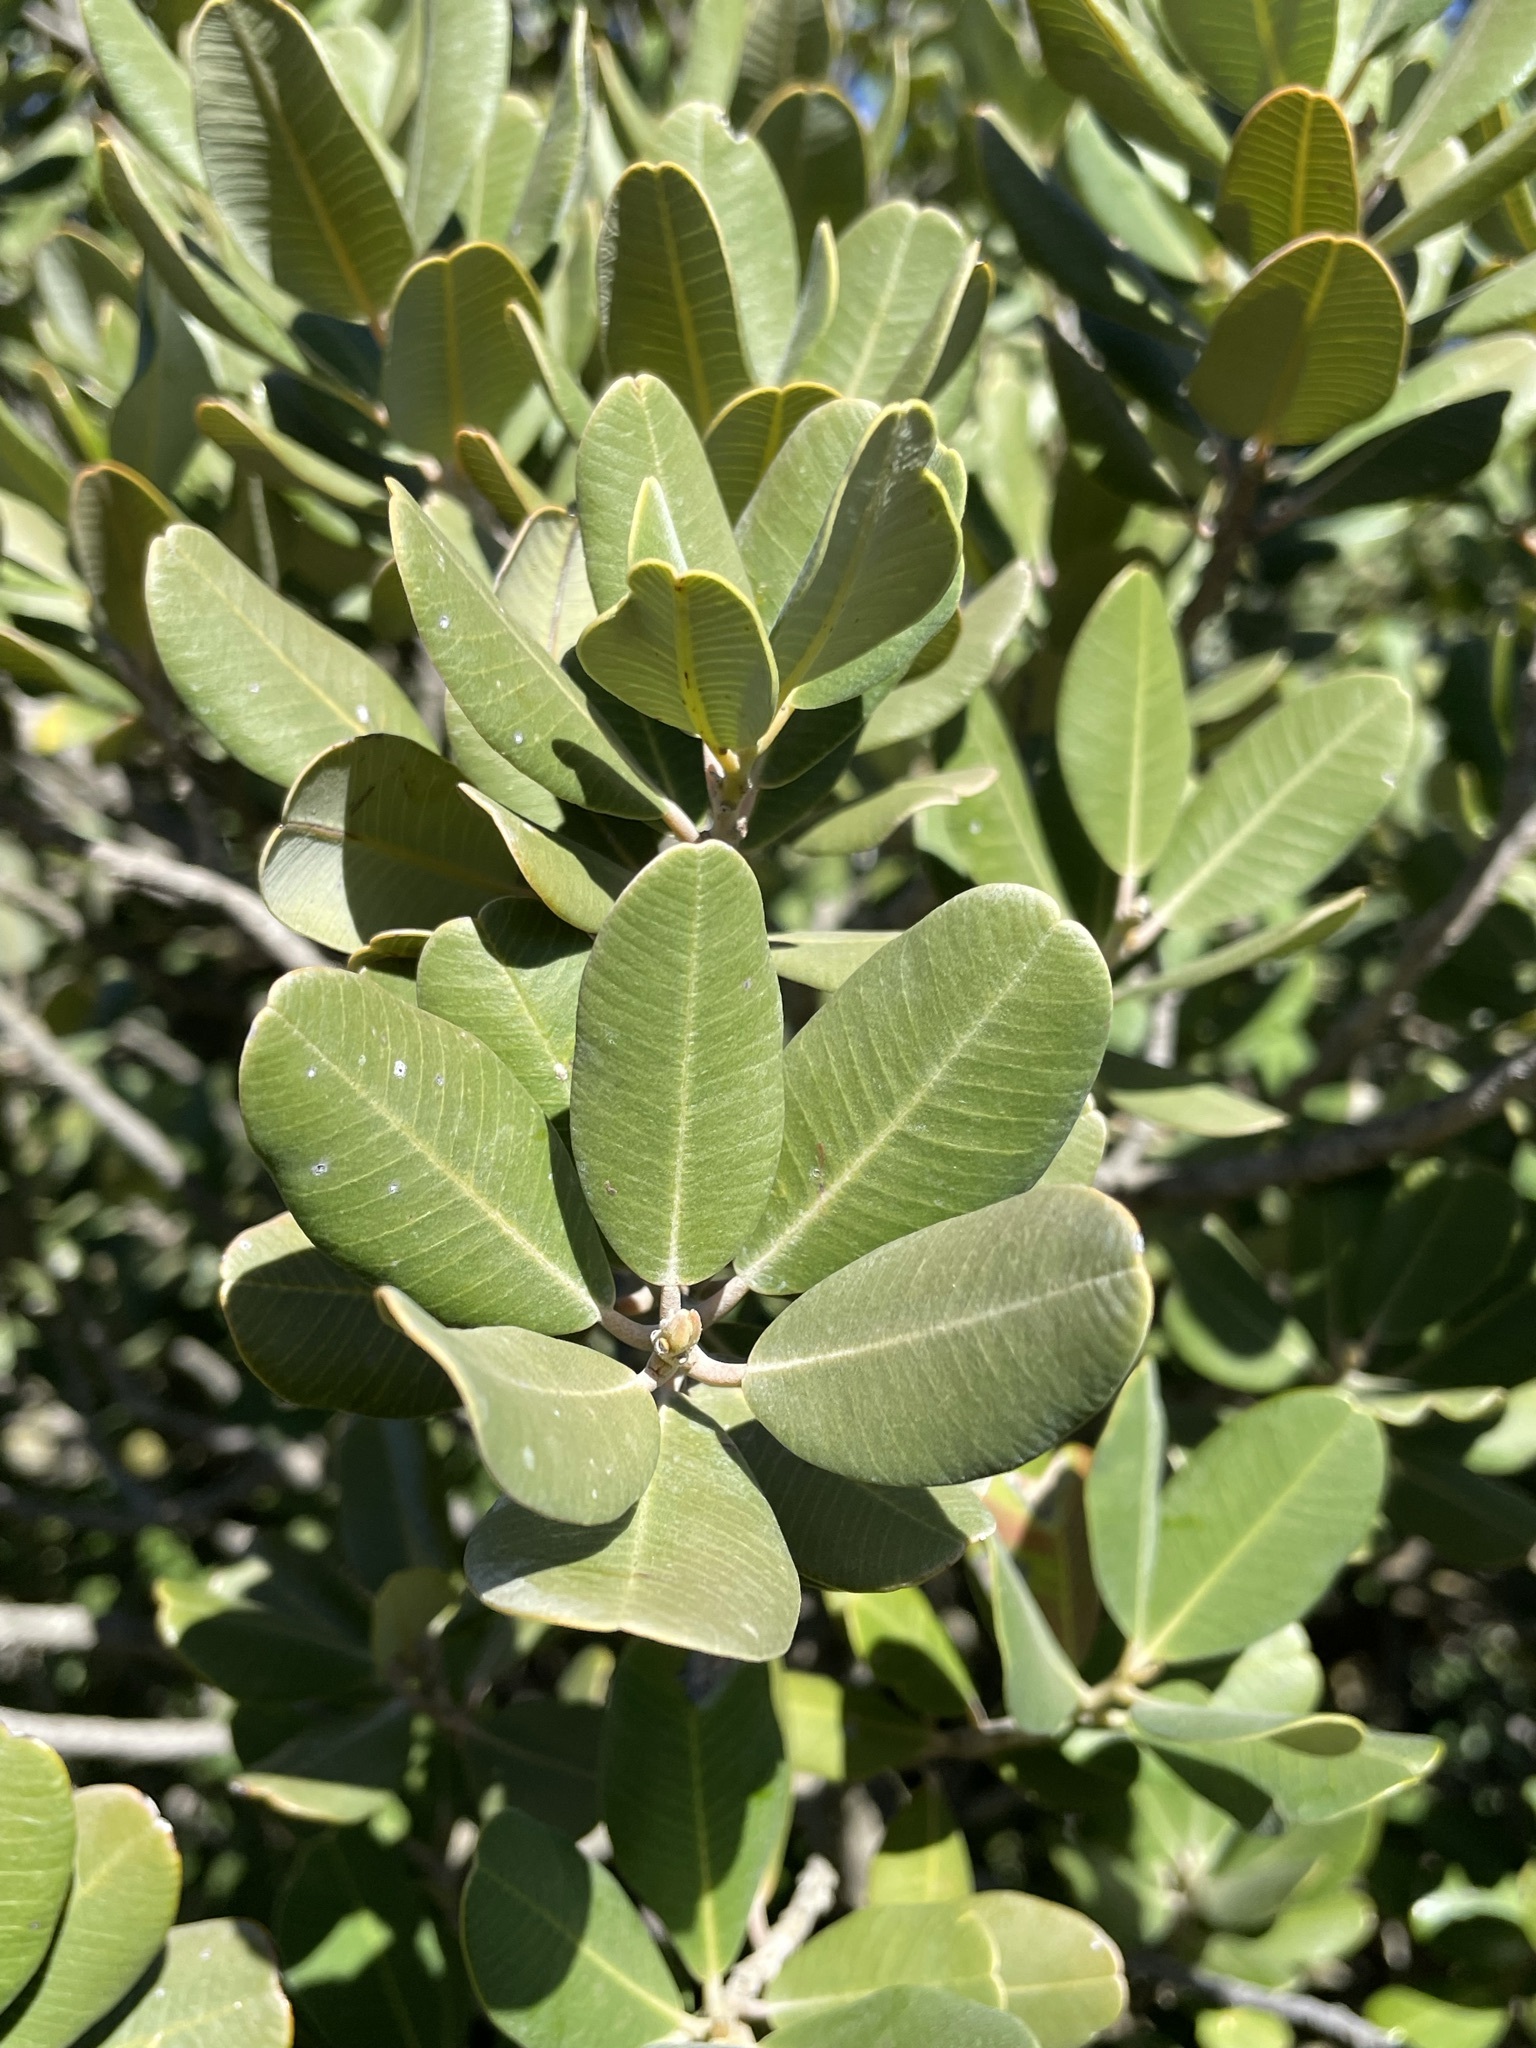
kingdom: Plantae
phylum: Tracheophyta
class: Magnoliopsida
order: Sapindales
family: Anacardiaceae
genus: Heeria
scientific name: Heeria argentea
